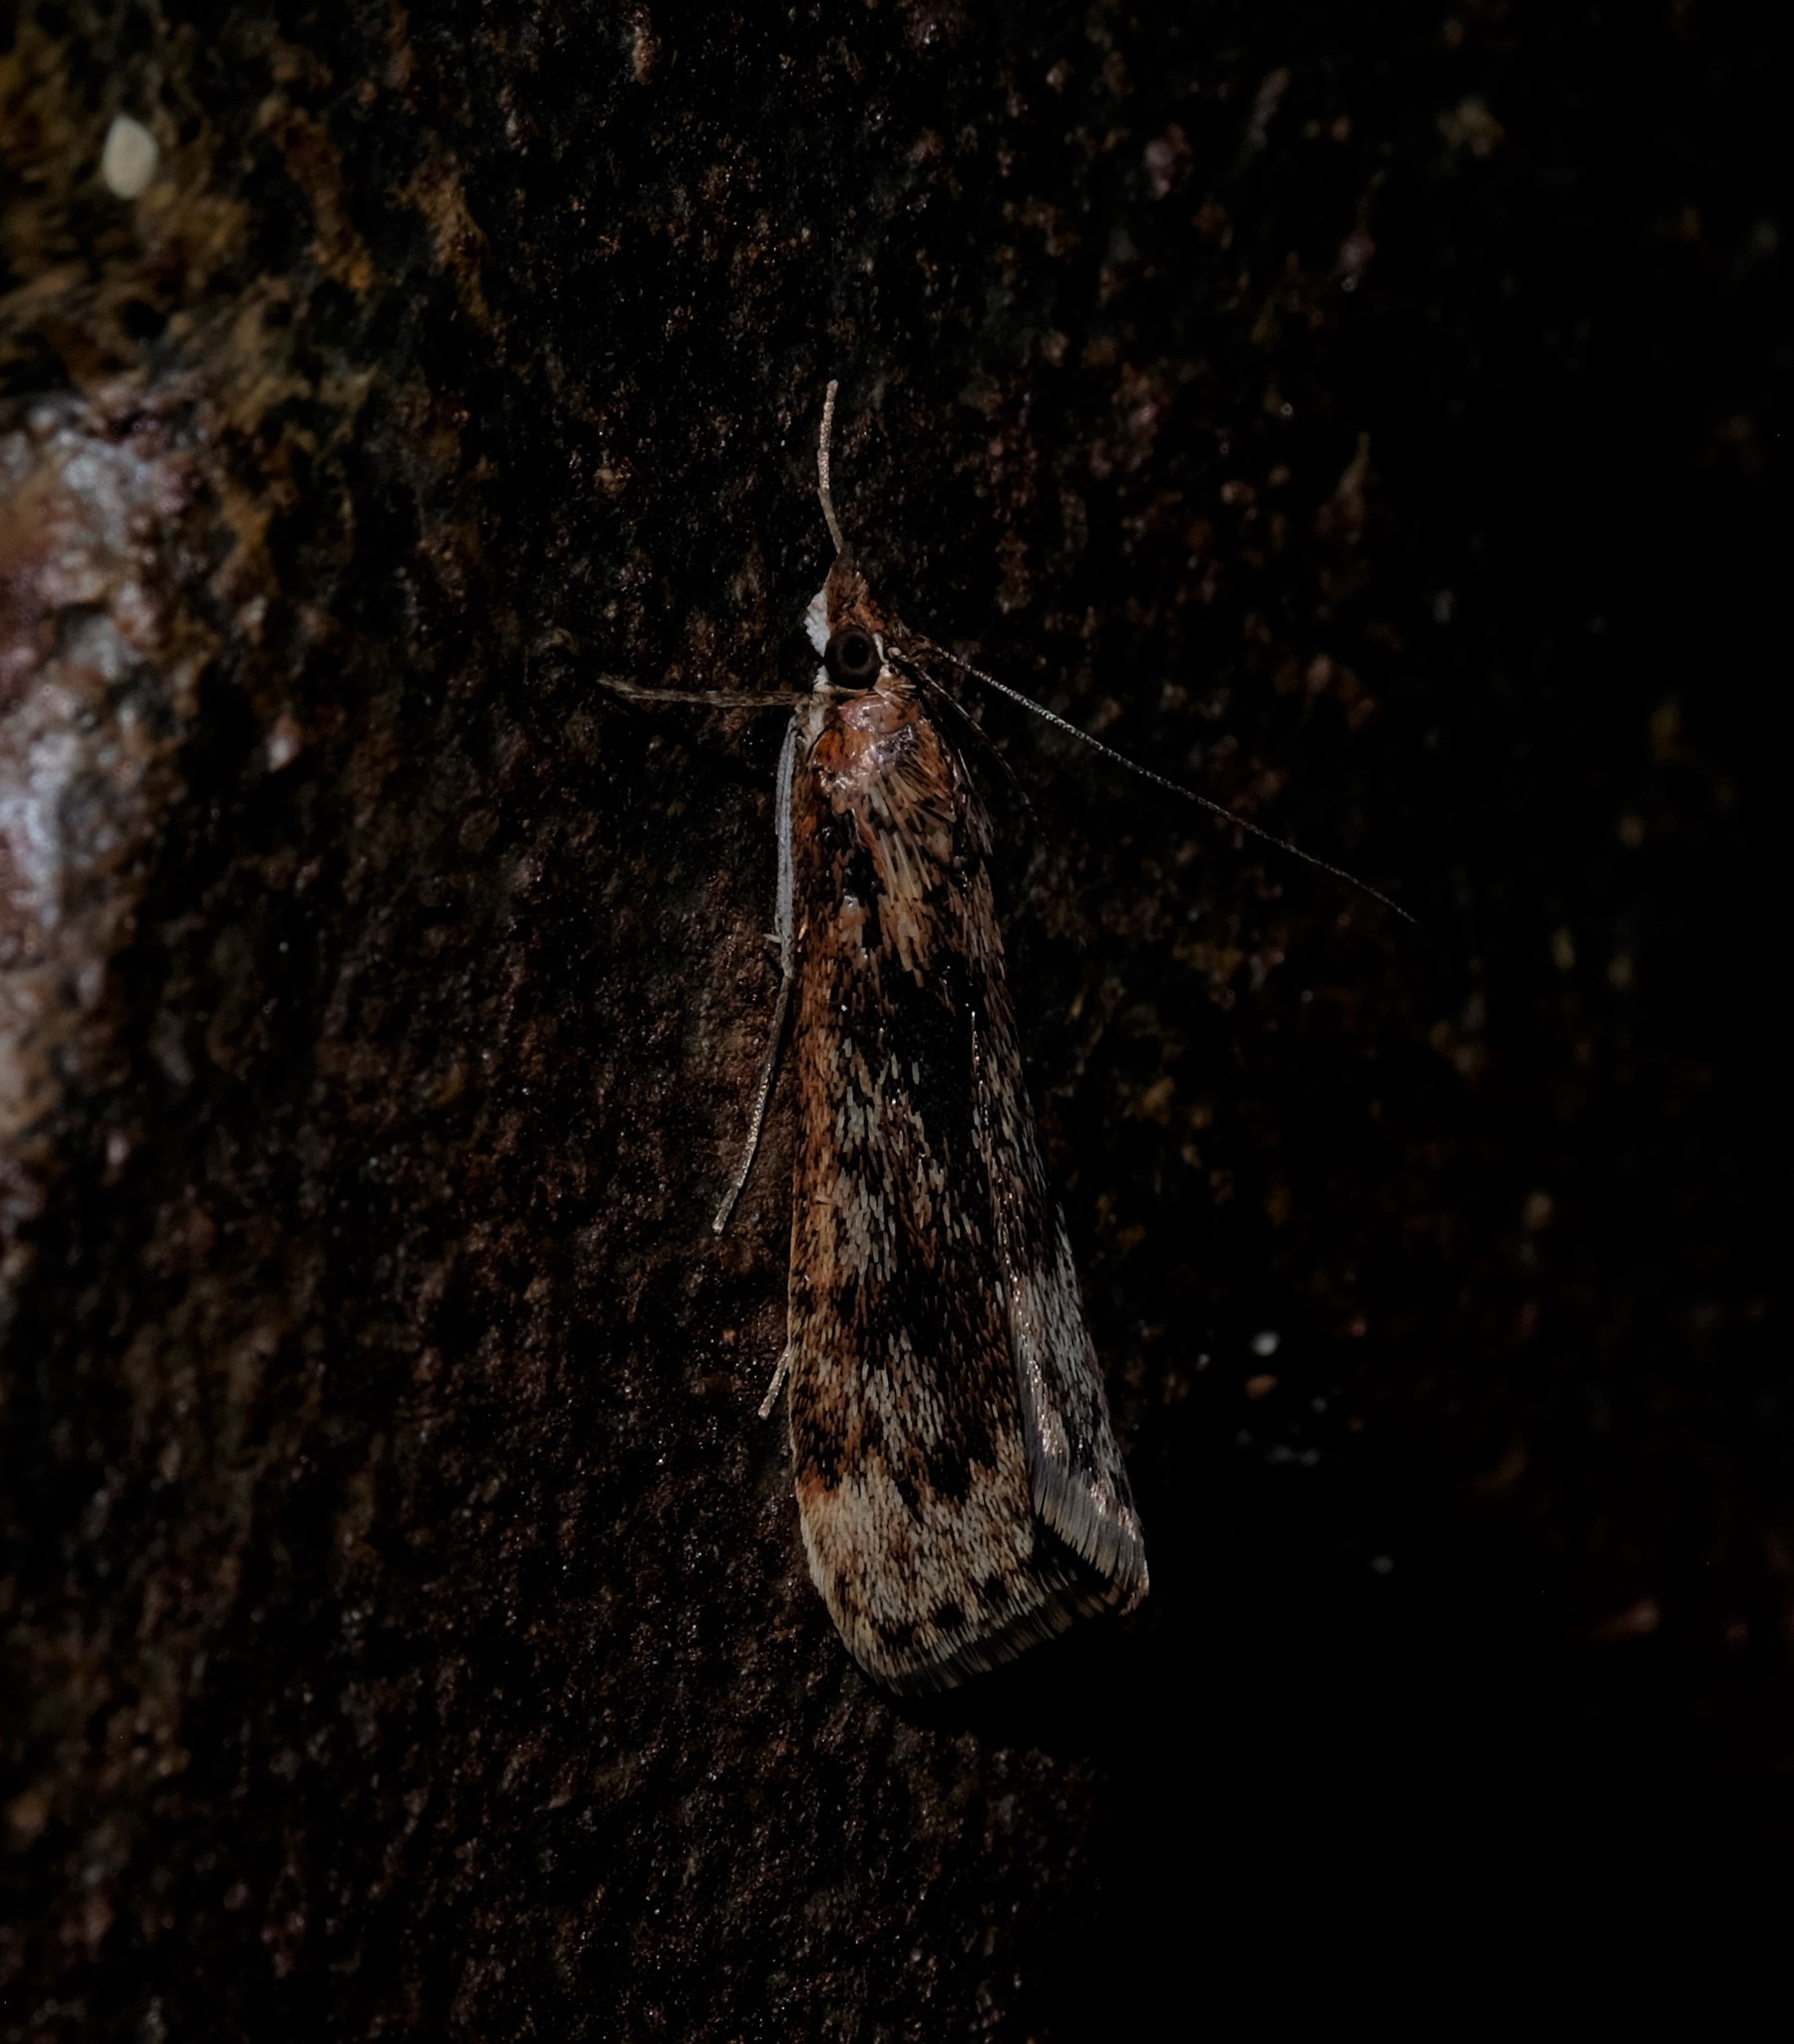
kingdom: Animalia
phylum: Arthropoda
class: Insecta
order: Lepidoptera
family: Crambidae
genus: Achyra
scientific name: Achyra affinitalis
